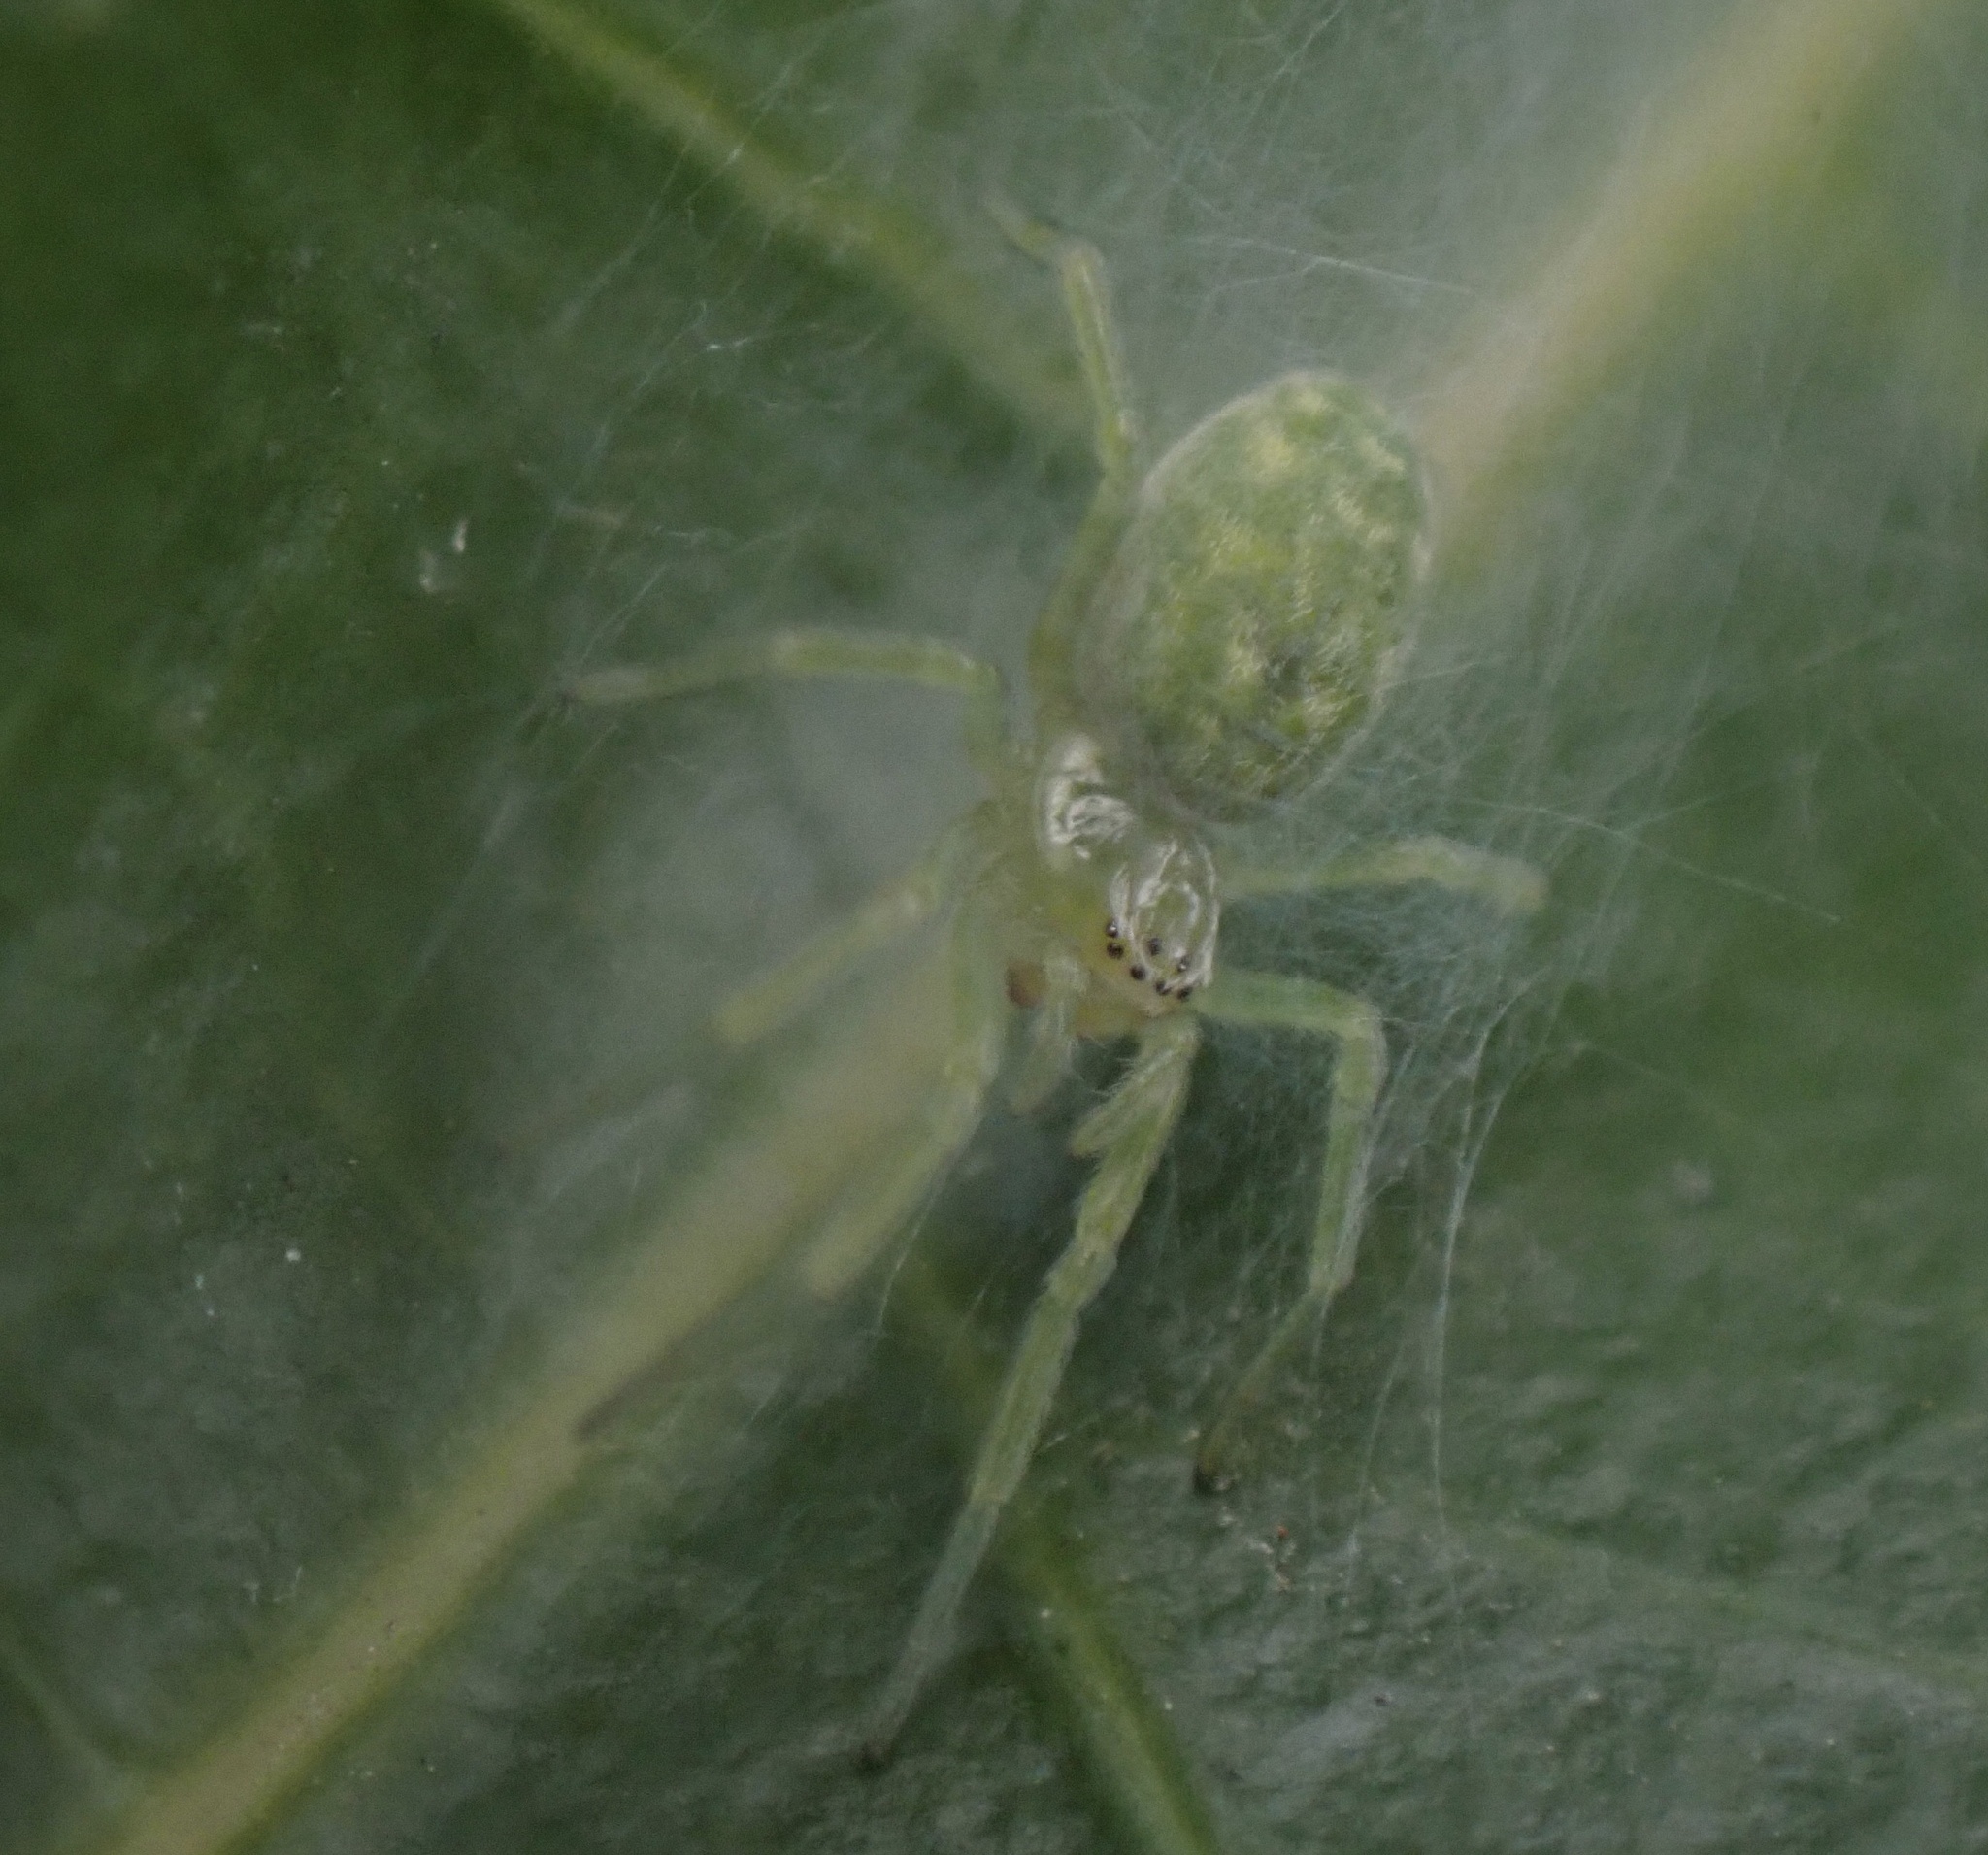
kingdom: Animalia
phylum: Arthropoda
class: Arachnida
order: Araneae
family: Dictynidae
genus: Nigma
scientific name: Nigma walckenaeri
